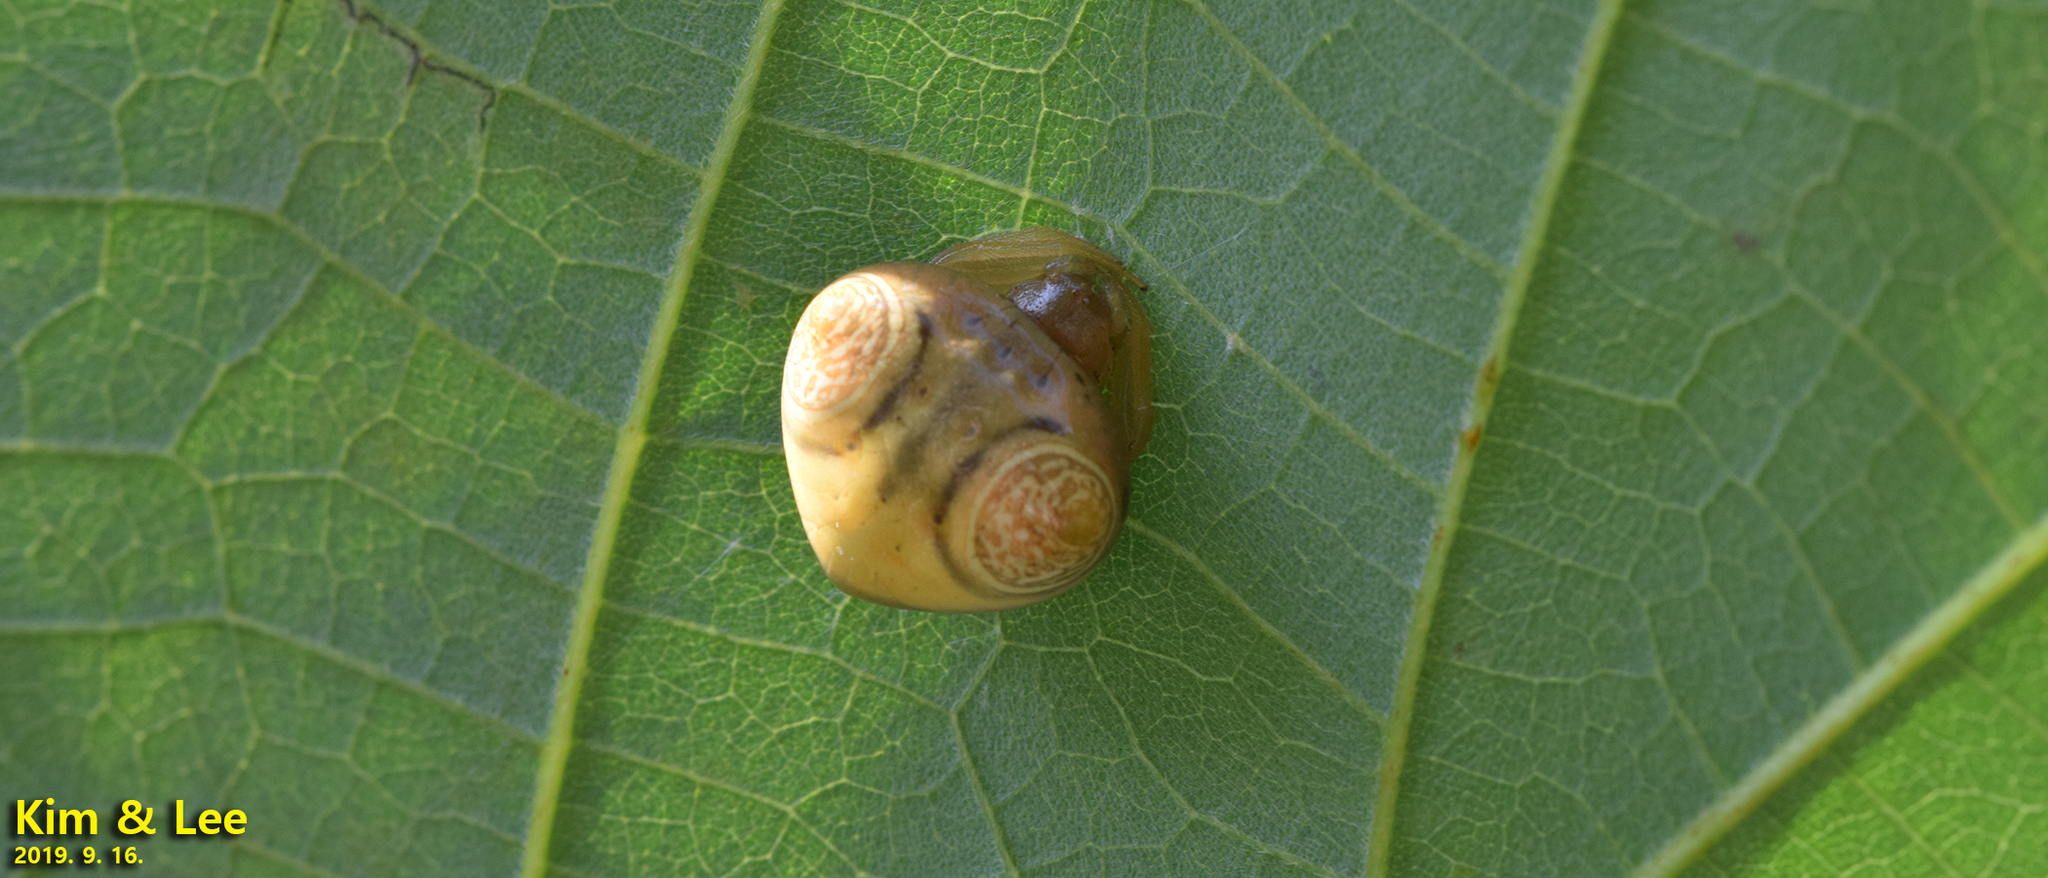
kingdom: Animalia
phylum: Arthropoda
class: Arachnida
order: Araneae
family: Araneidae
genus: Cyrtarachne
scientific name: Cyrtarachne inaequalis
